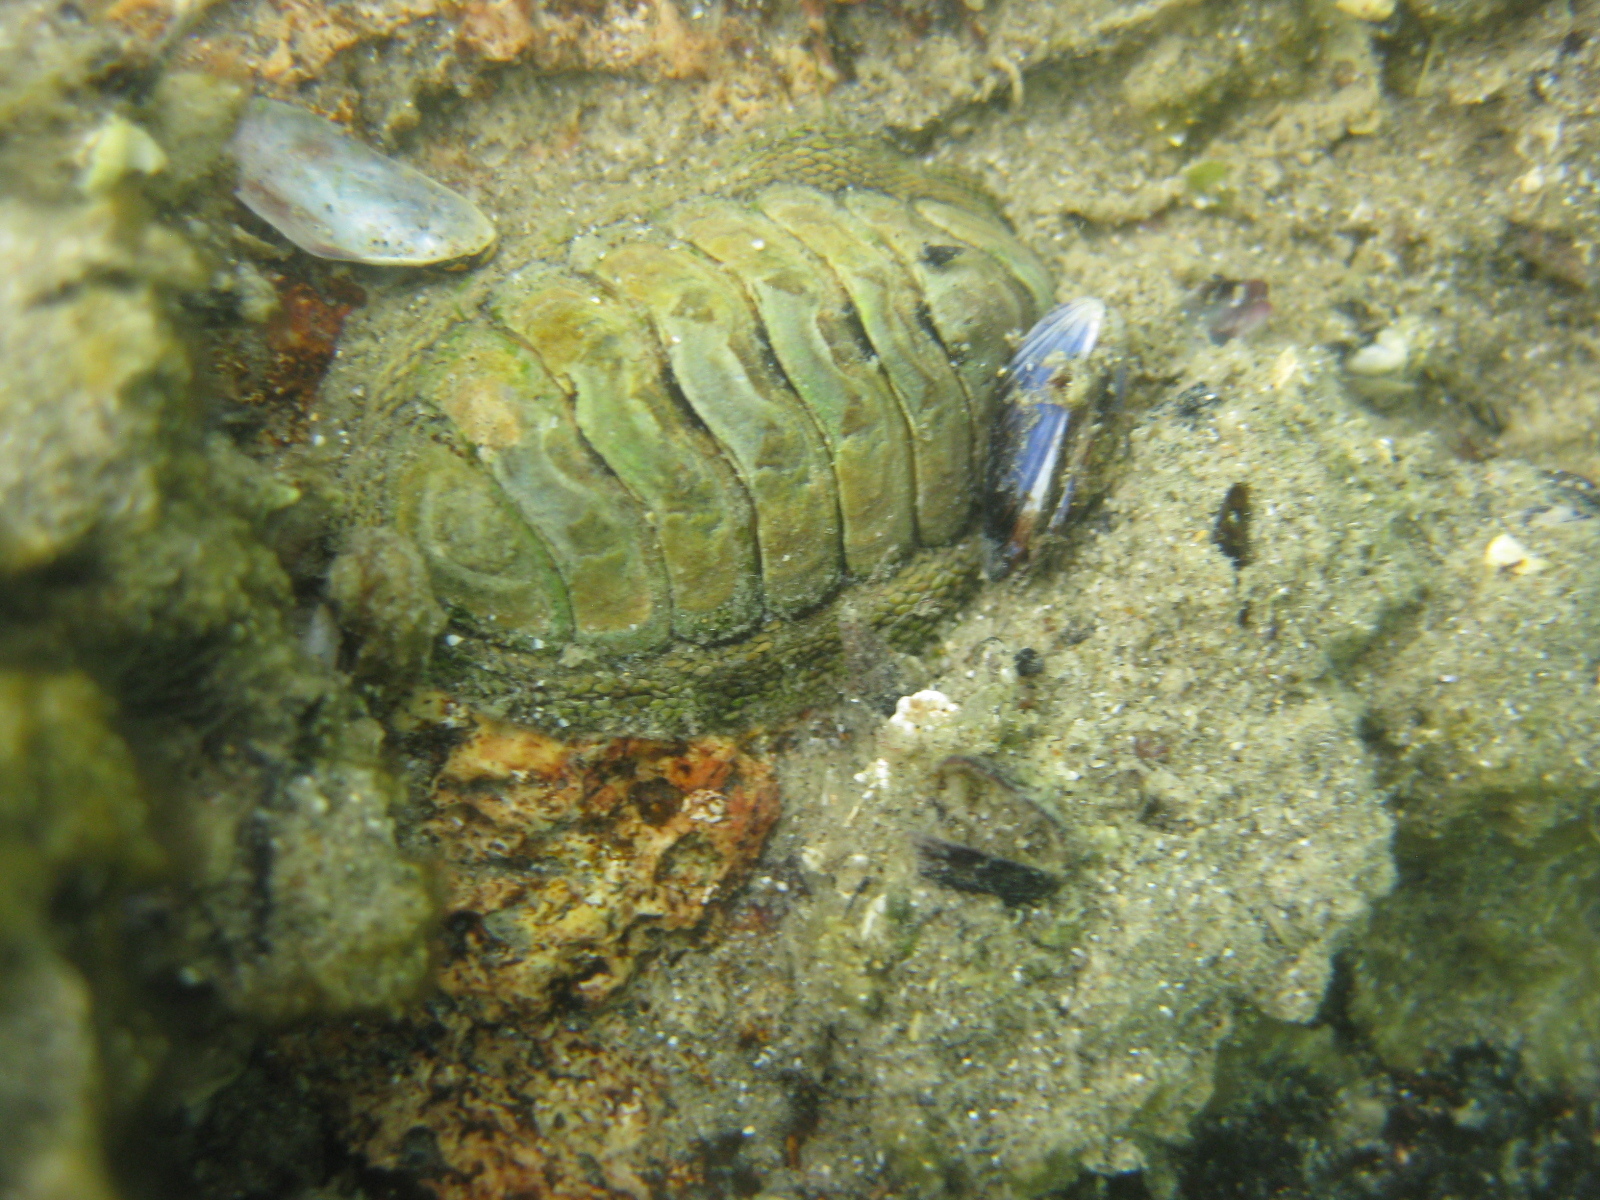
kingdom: Animalia
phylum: Mollusca
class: Polyplacophora
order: Chitonida
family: Chitonidae
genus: Sypharochiton
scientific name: Sypharochiton pelliserpentis
